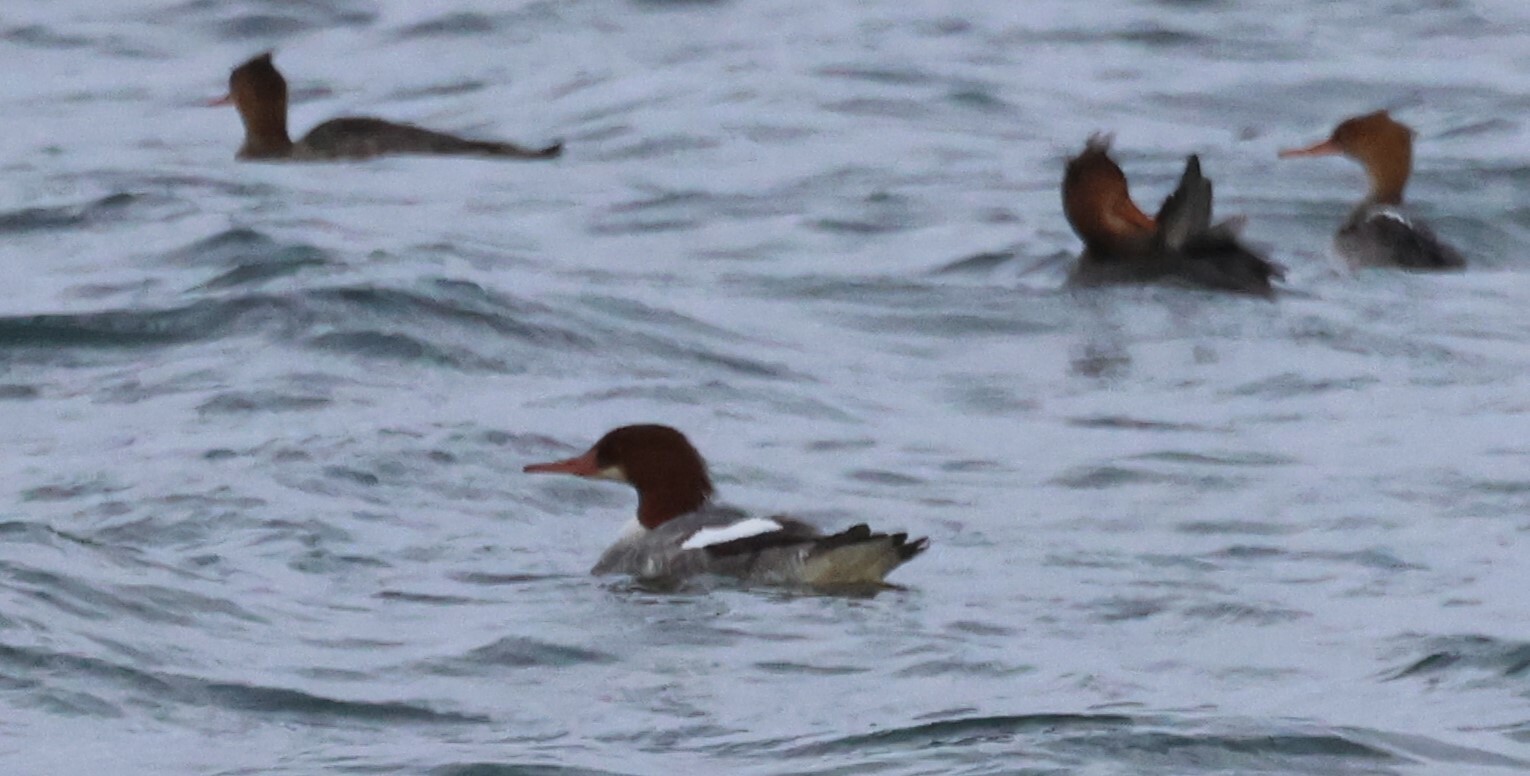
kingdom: Animalia
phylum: Chordata
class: Aves
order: Anseriformes
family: Anatidae
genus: Mergus
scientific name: Mergus merganser
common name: Common merganser
